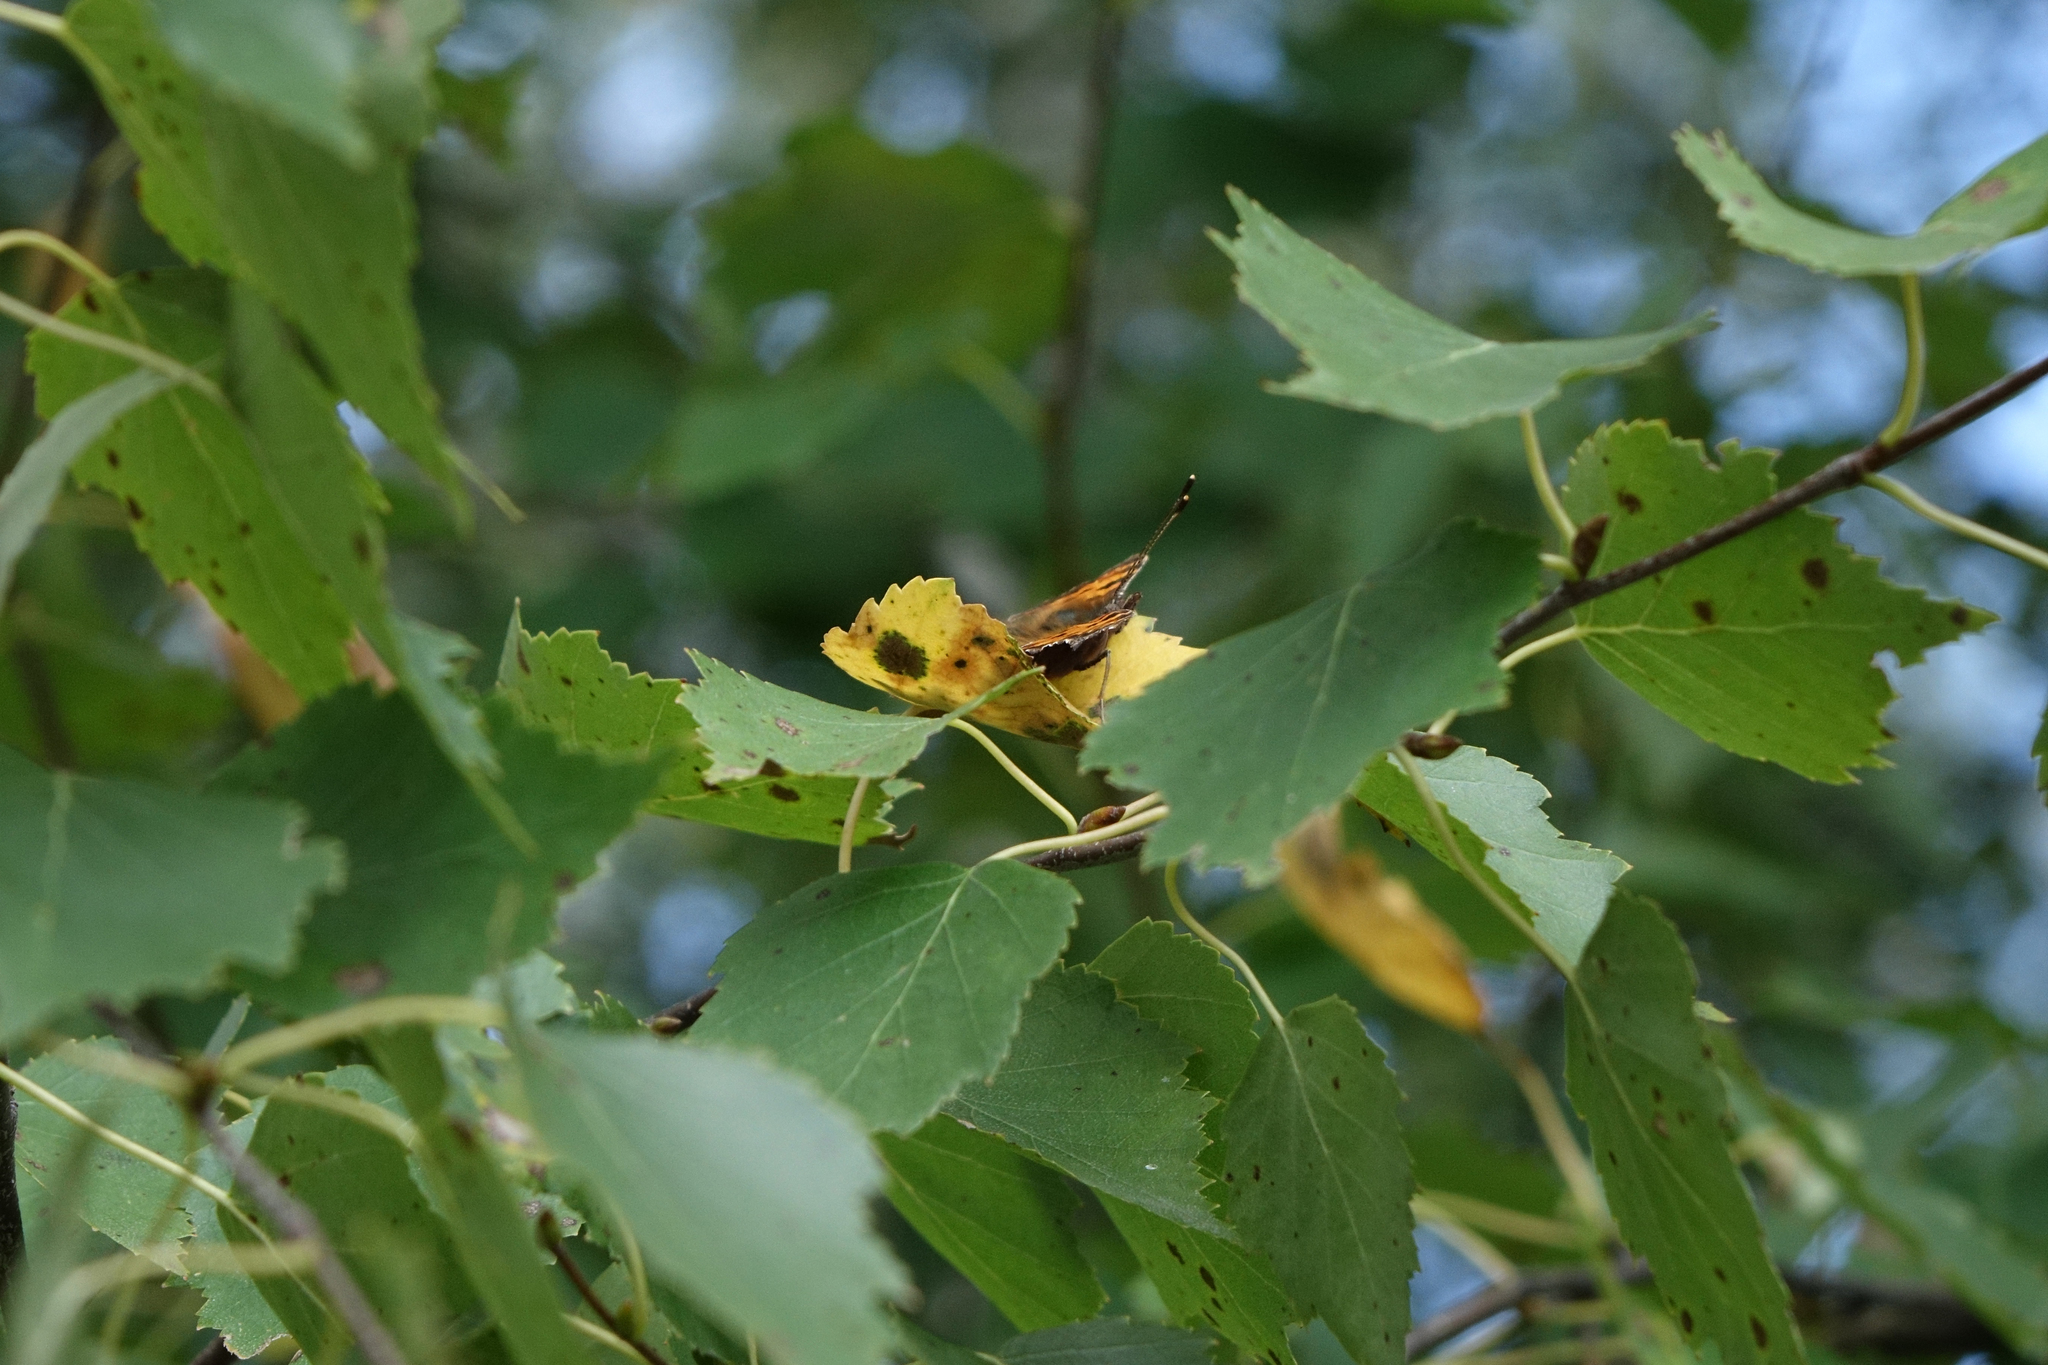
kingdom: Plantae
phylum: Tracheophyta
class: Magnoliopsida
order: Fagales
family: Betulaceae
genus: Betula
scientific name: Betula pendula
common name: Silver birch
